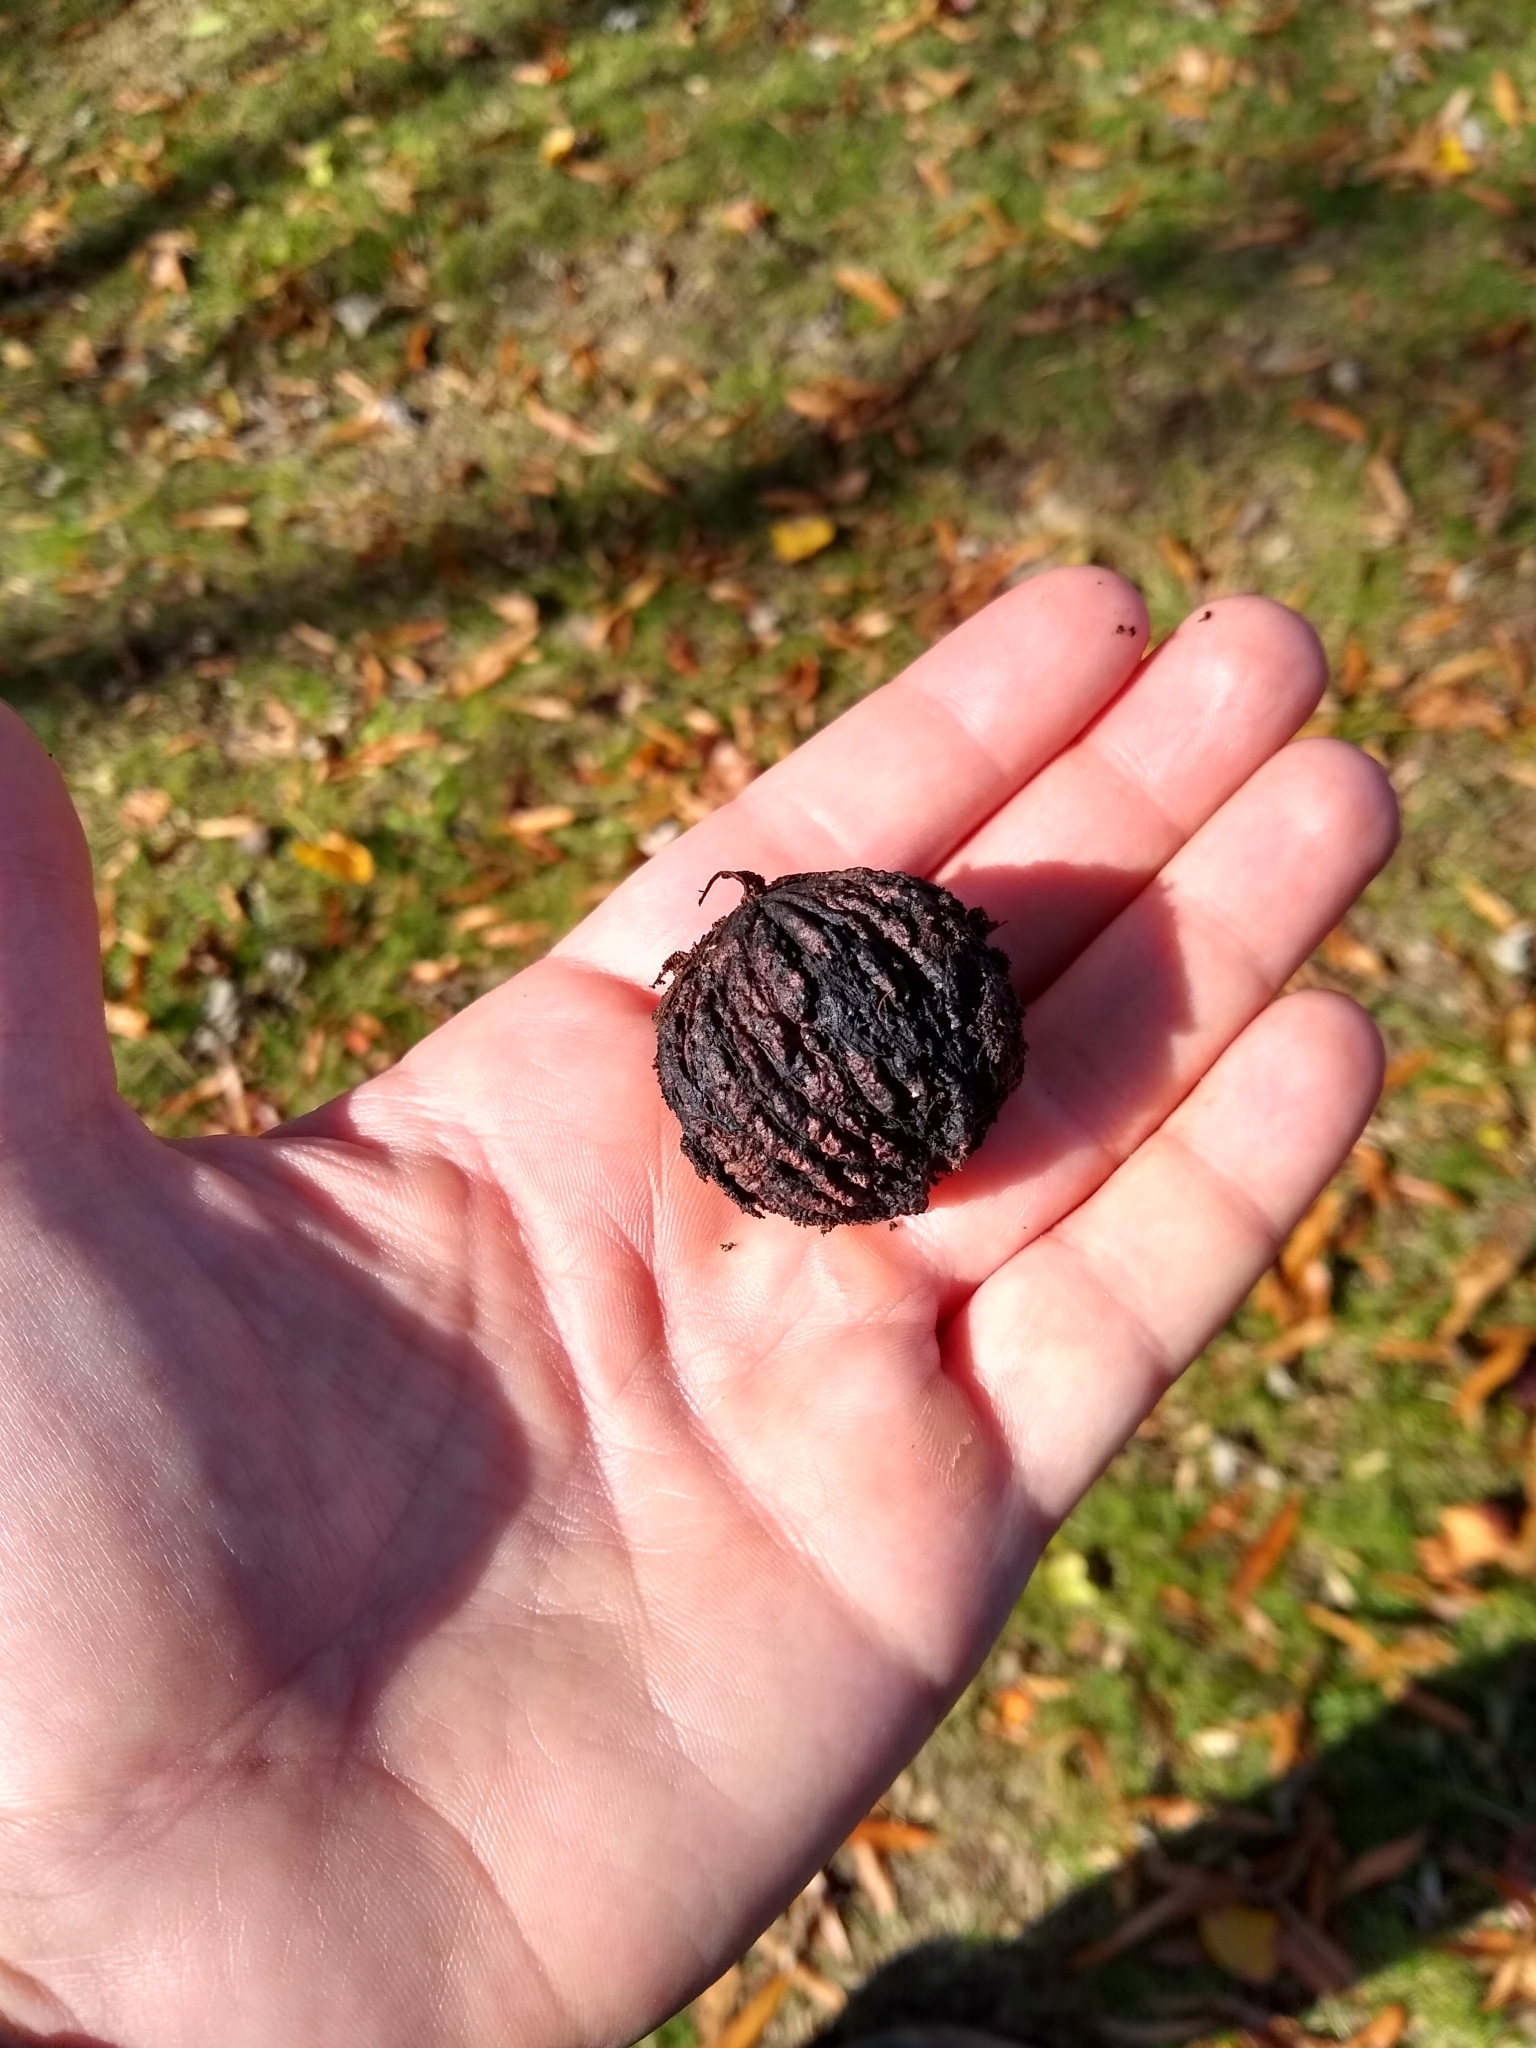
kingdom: Plantae
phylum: Tracheophyta
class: Magnoliopsida
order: Fagales
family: Juglandaceae
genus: Juglans
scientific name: Juglans nigra
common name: Black walnut
